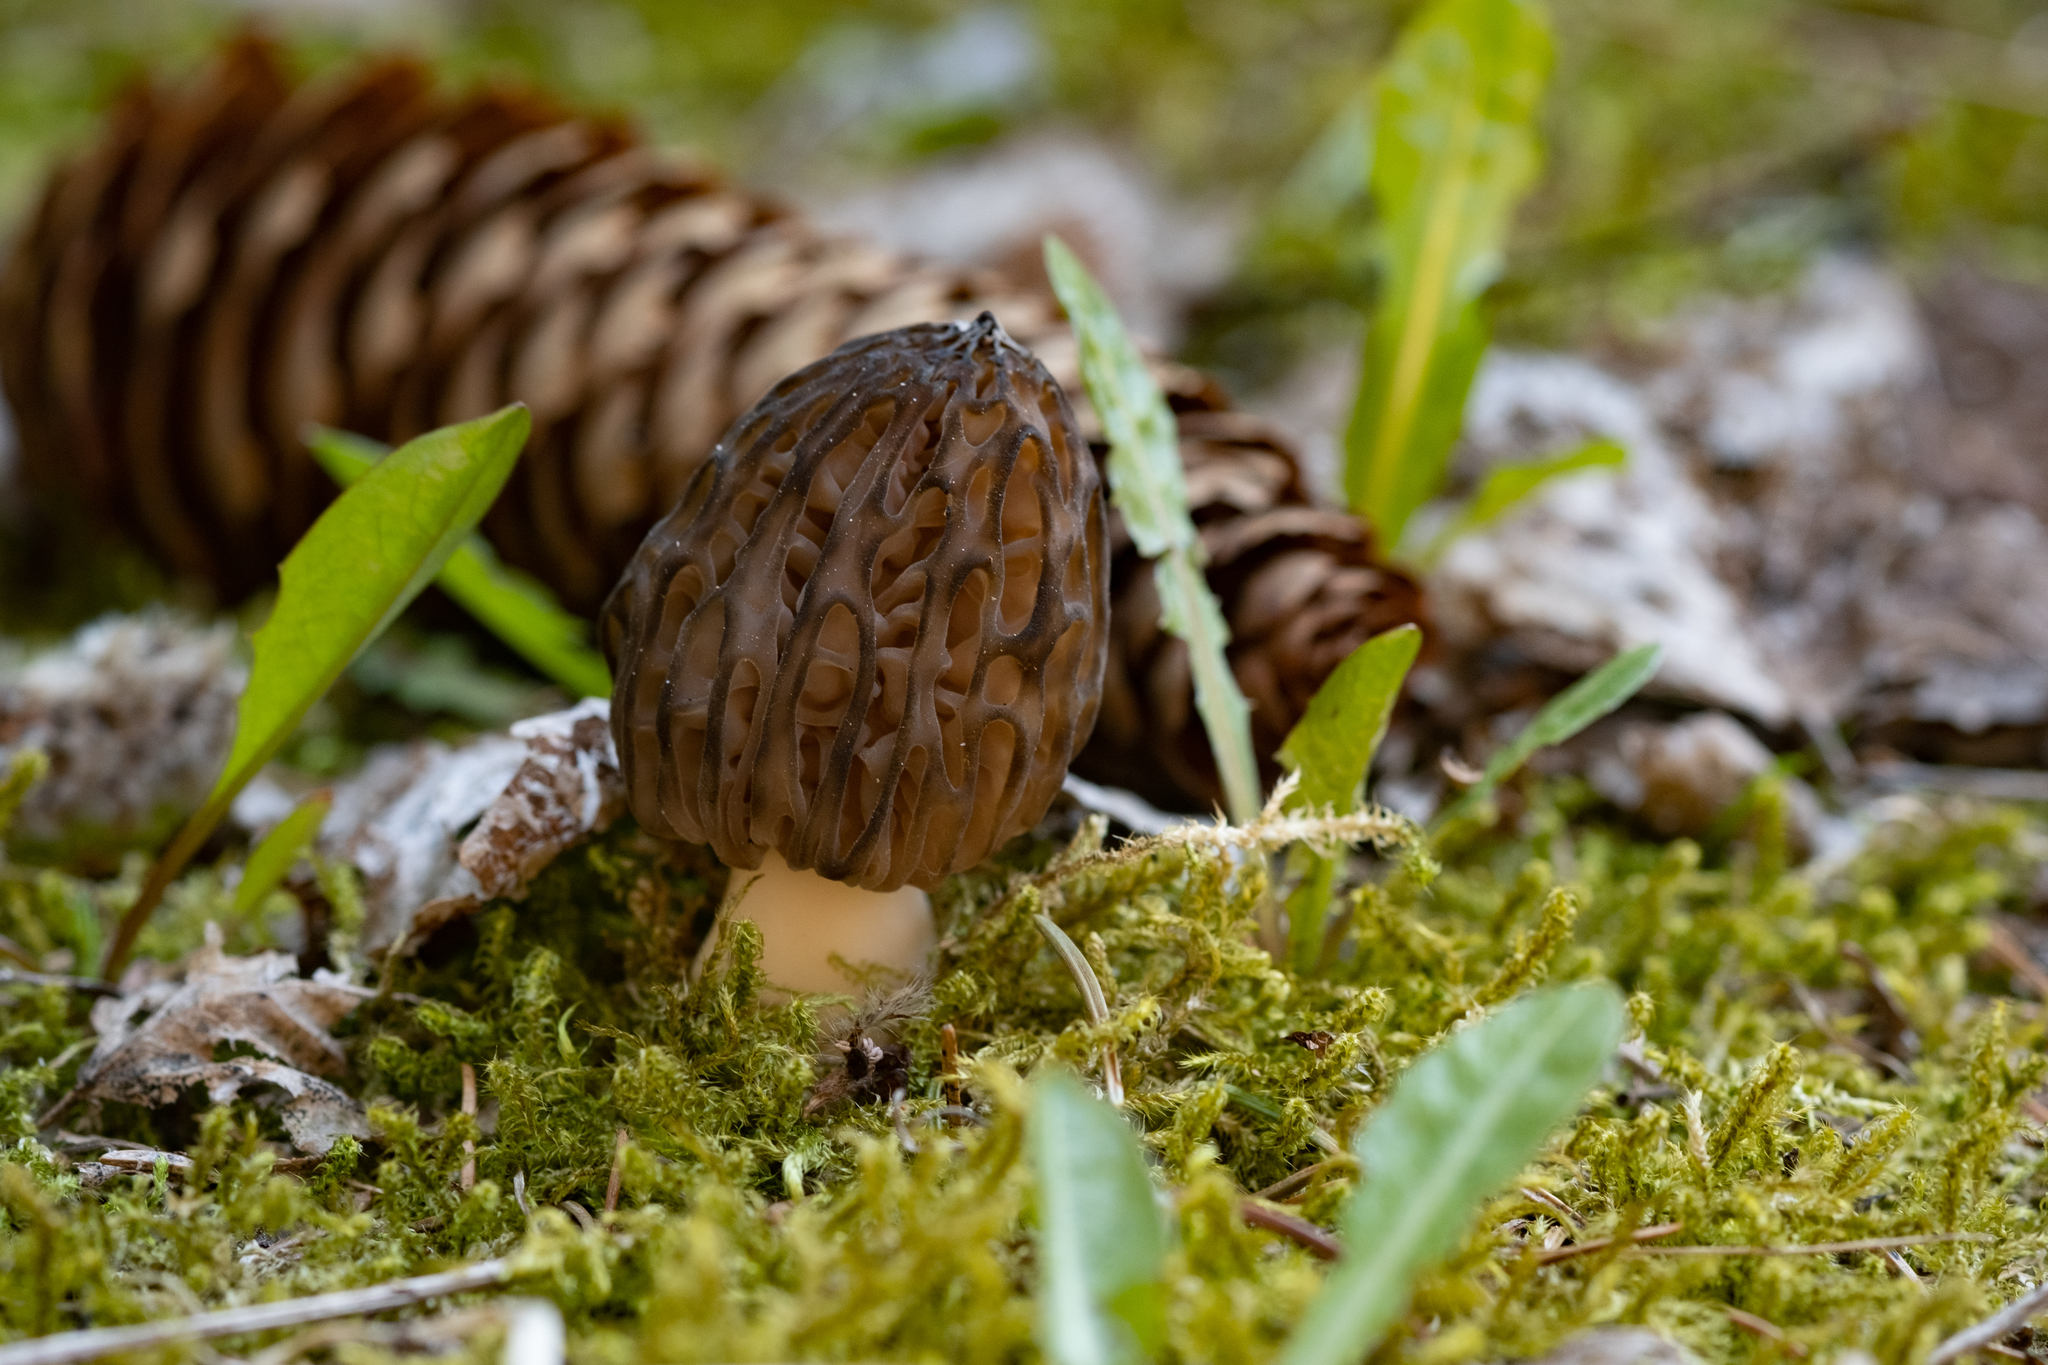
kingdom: Fungi
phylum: Ascomycota
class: Pezizomycetes
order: Pezizales
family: Morchellaceae
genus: Morchella
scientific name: Morchella
